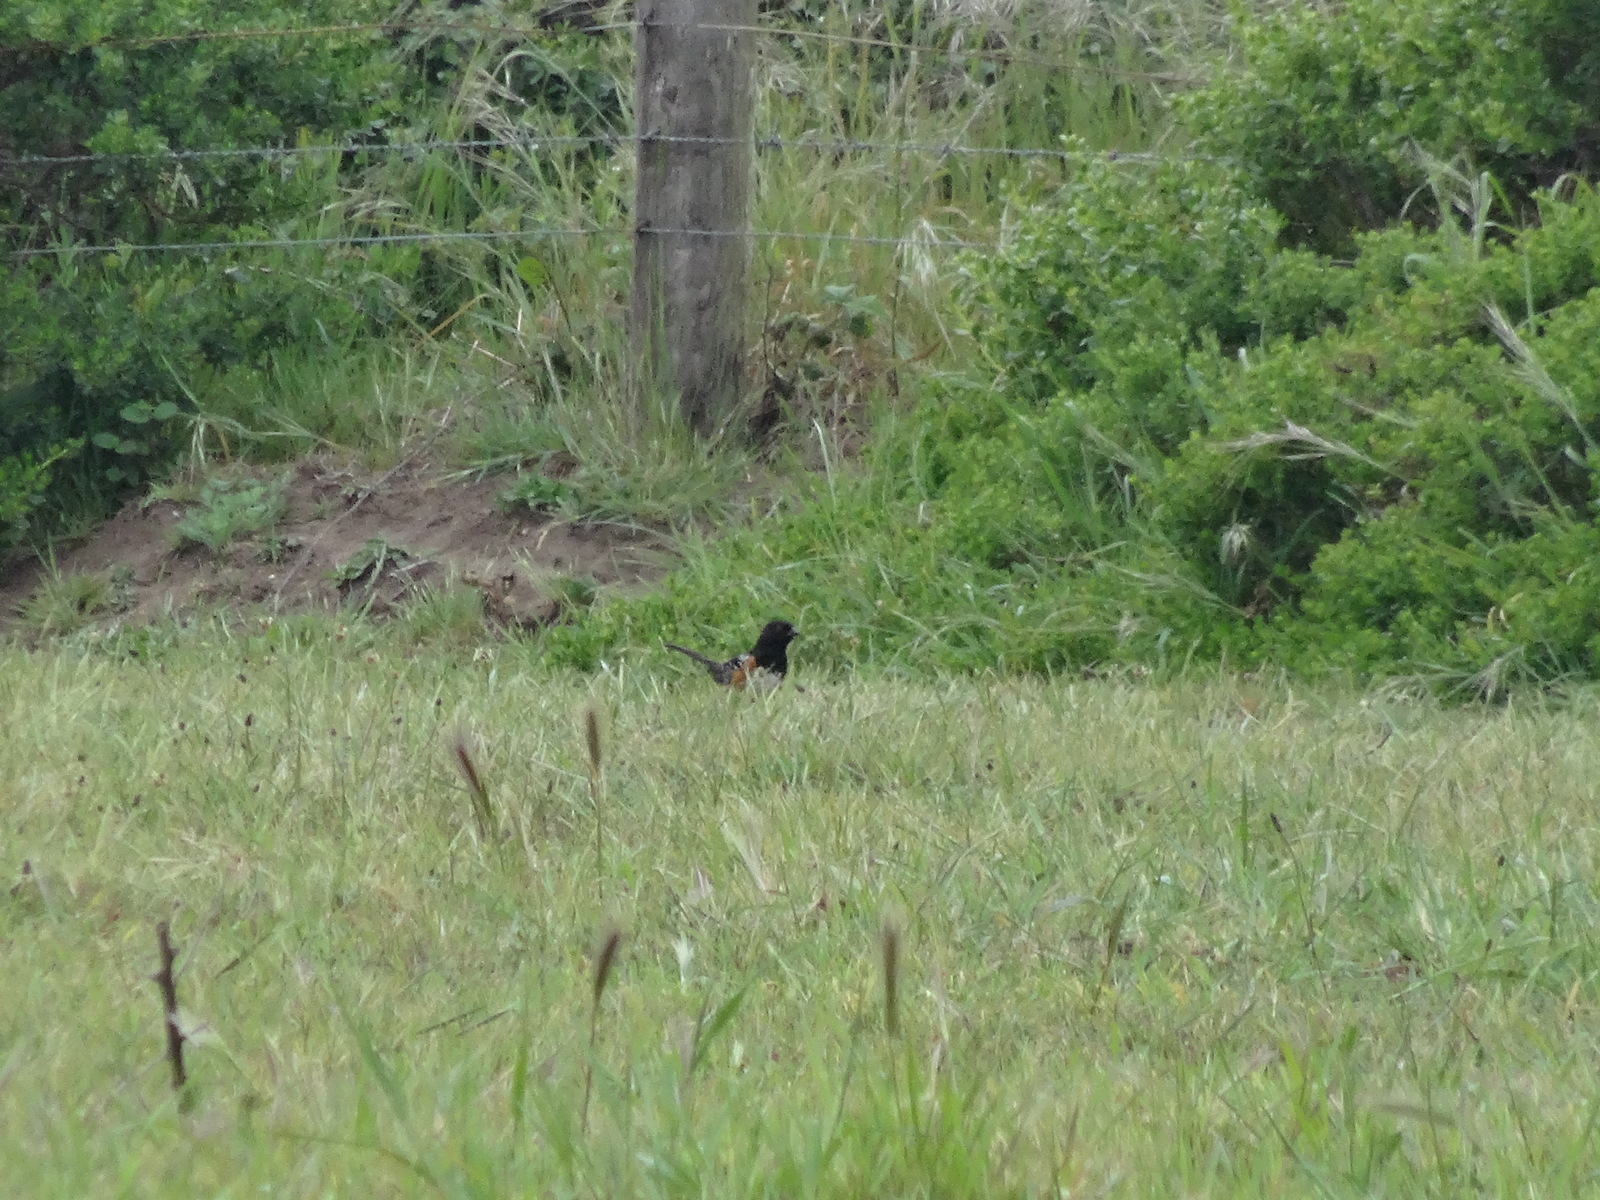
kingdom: Animalia
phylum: Chordata
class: Aves
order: Passeriformes
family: Passerellidae
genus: Pipilo
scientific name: Pipilo maculatus
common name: Spotted towhee
